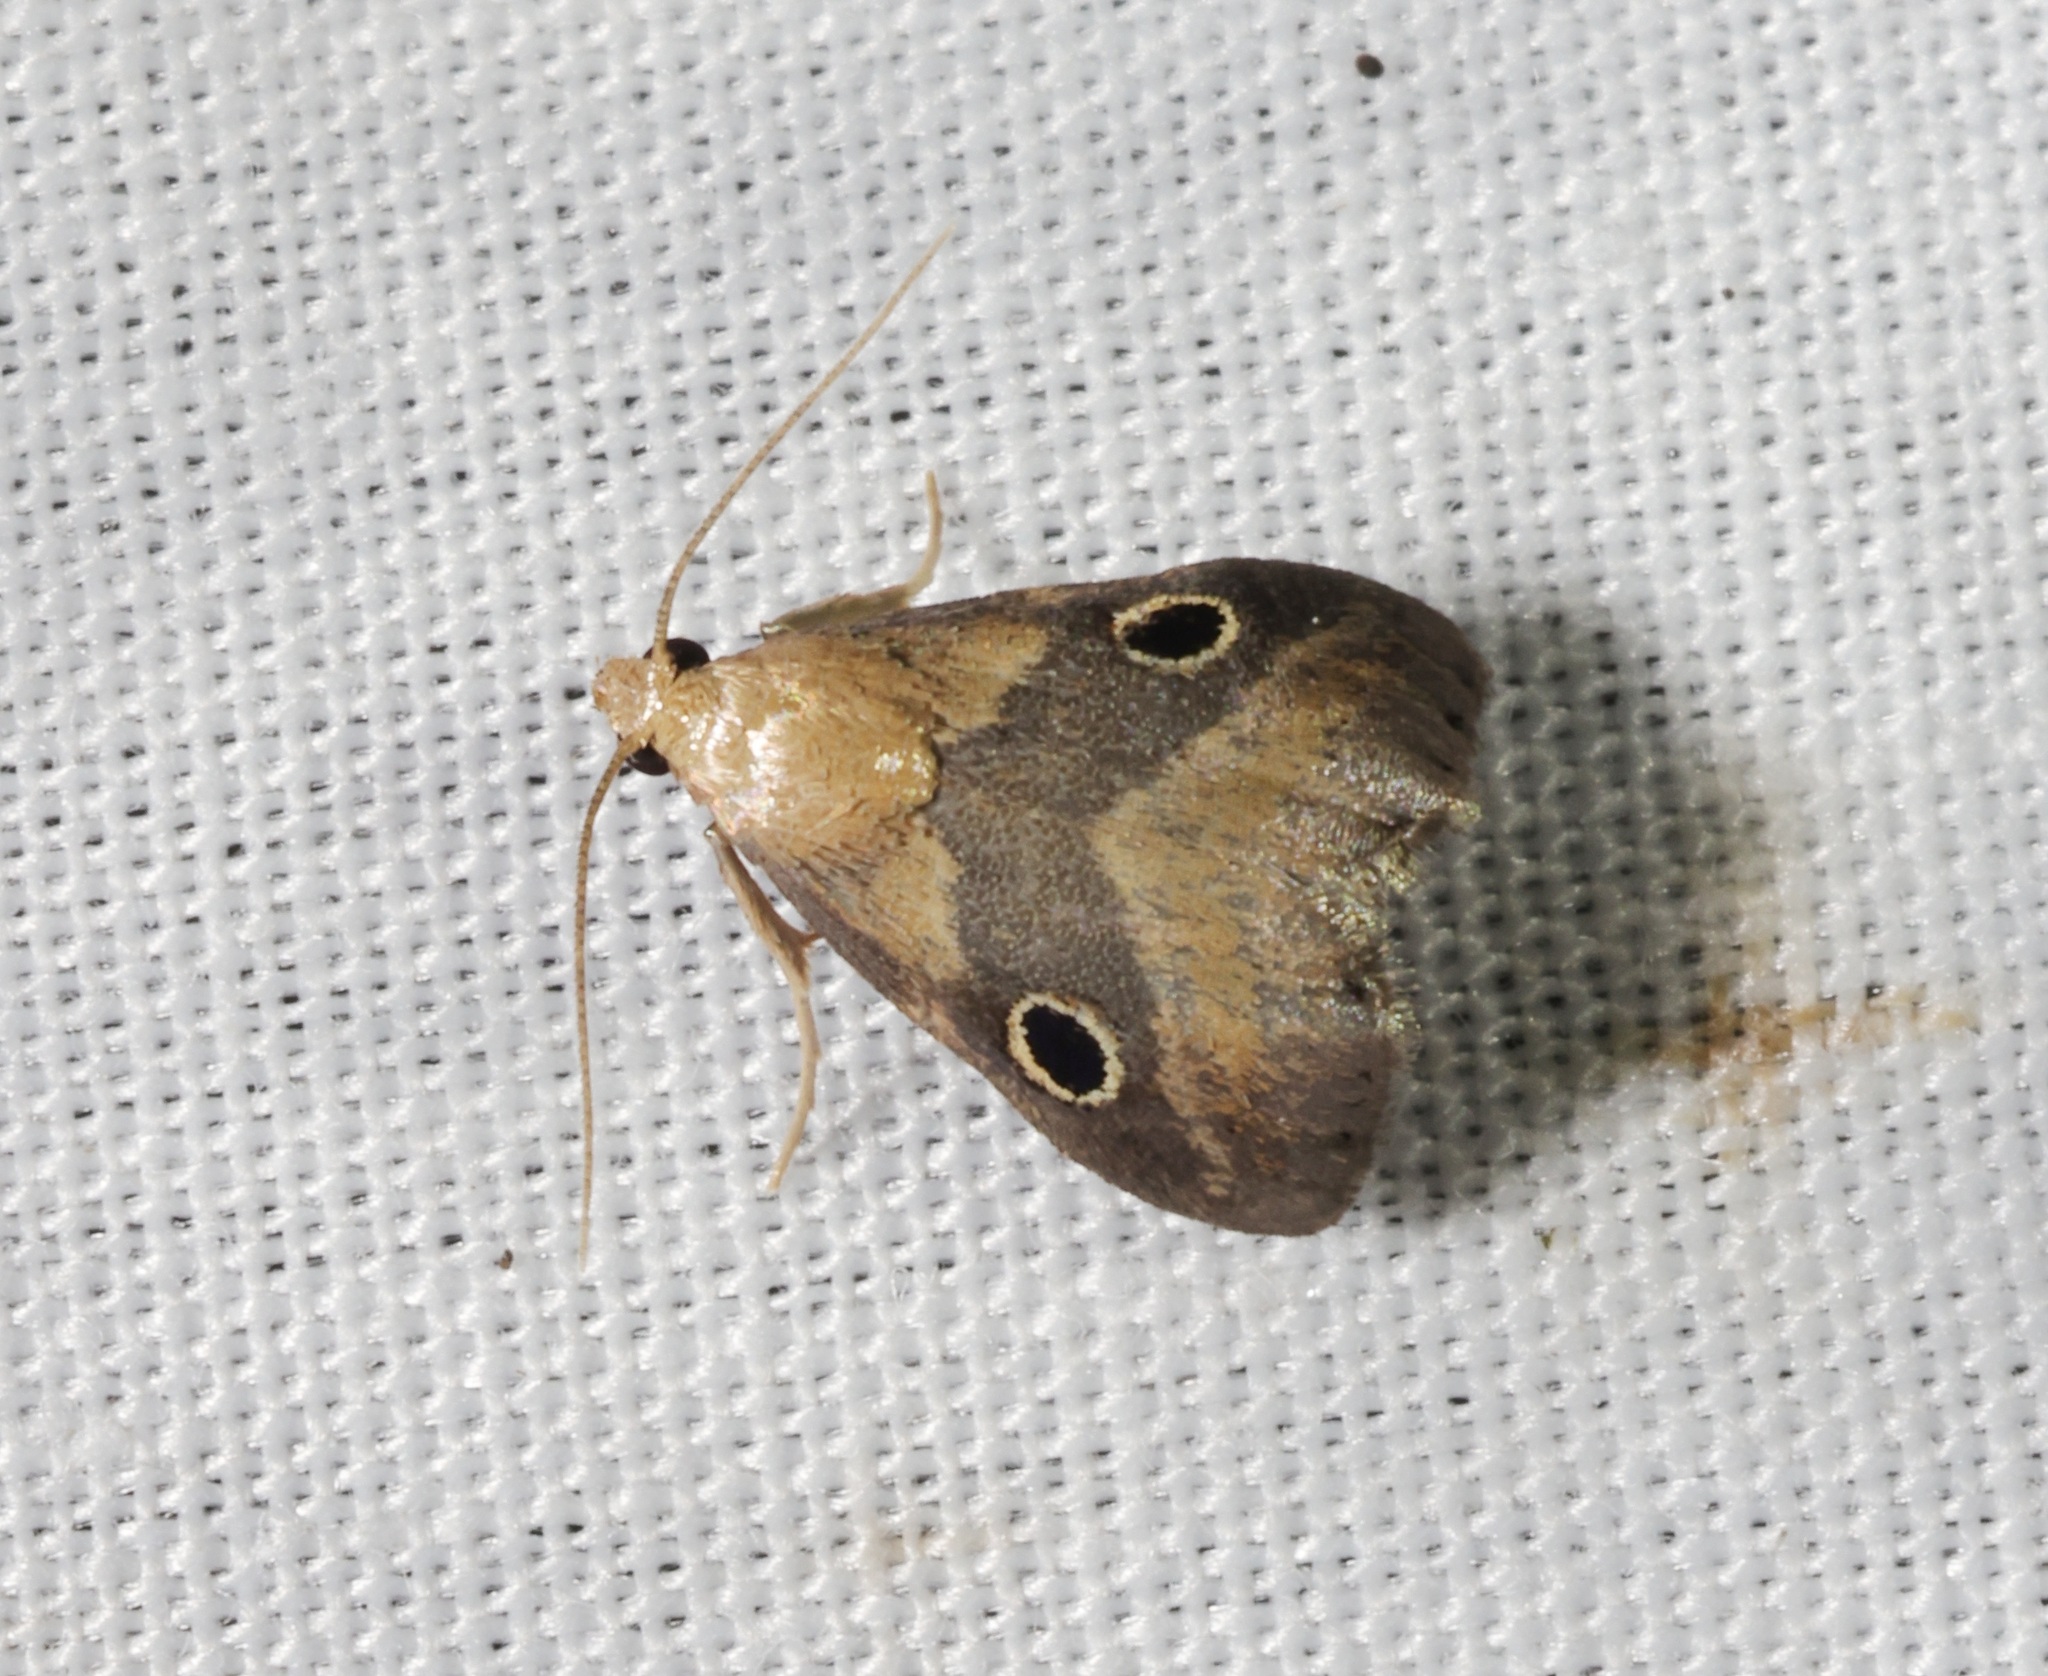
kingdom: Animalia
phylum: Arthropoda
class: Insecta
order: Lepidoptera
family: Pyralidae
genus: Tanyethira
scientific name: Tanyethira
